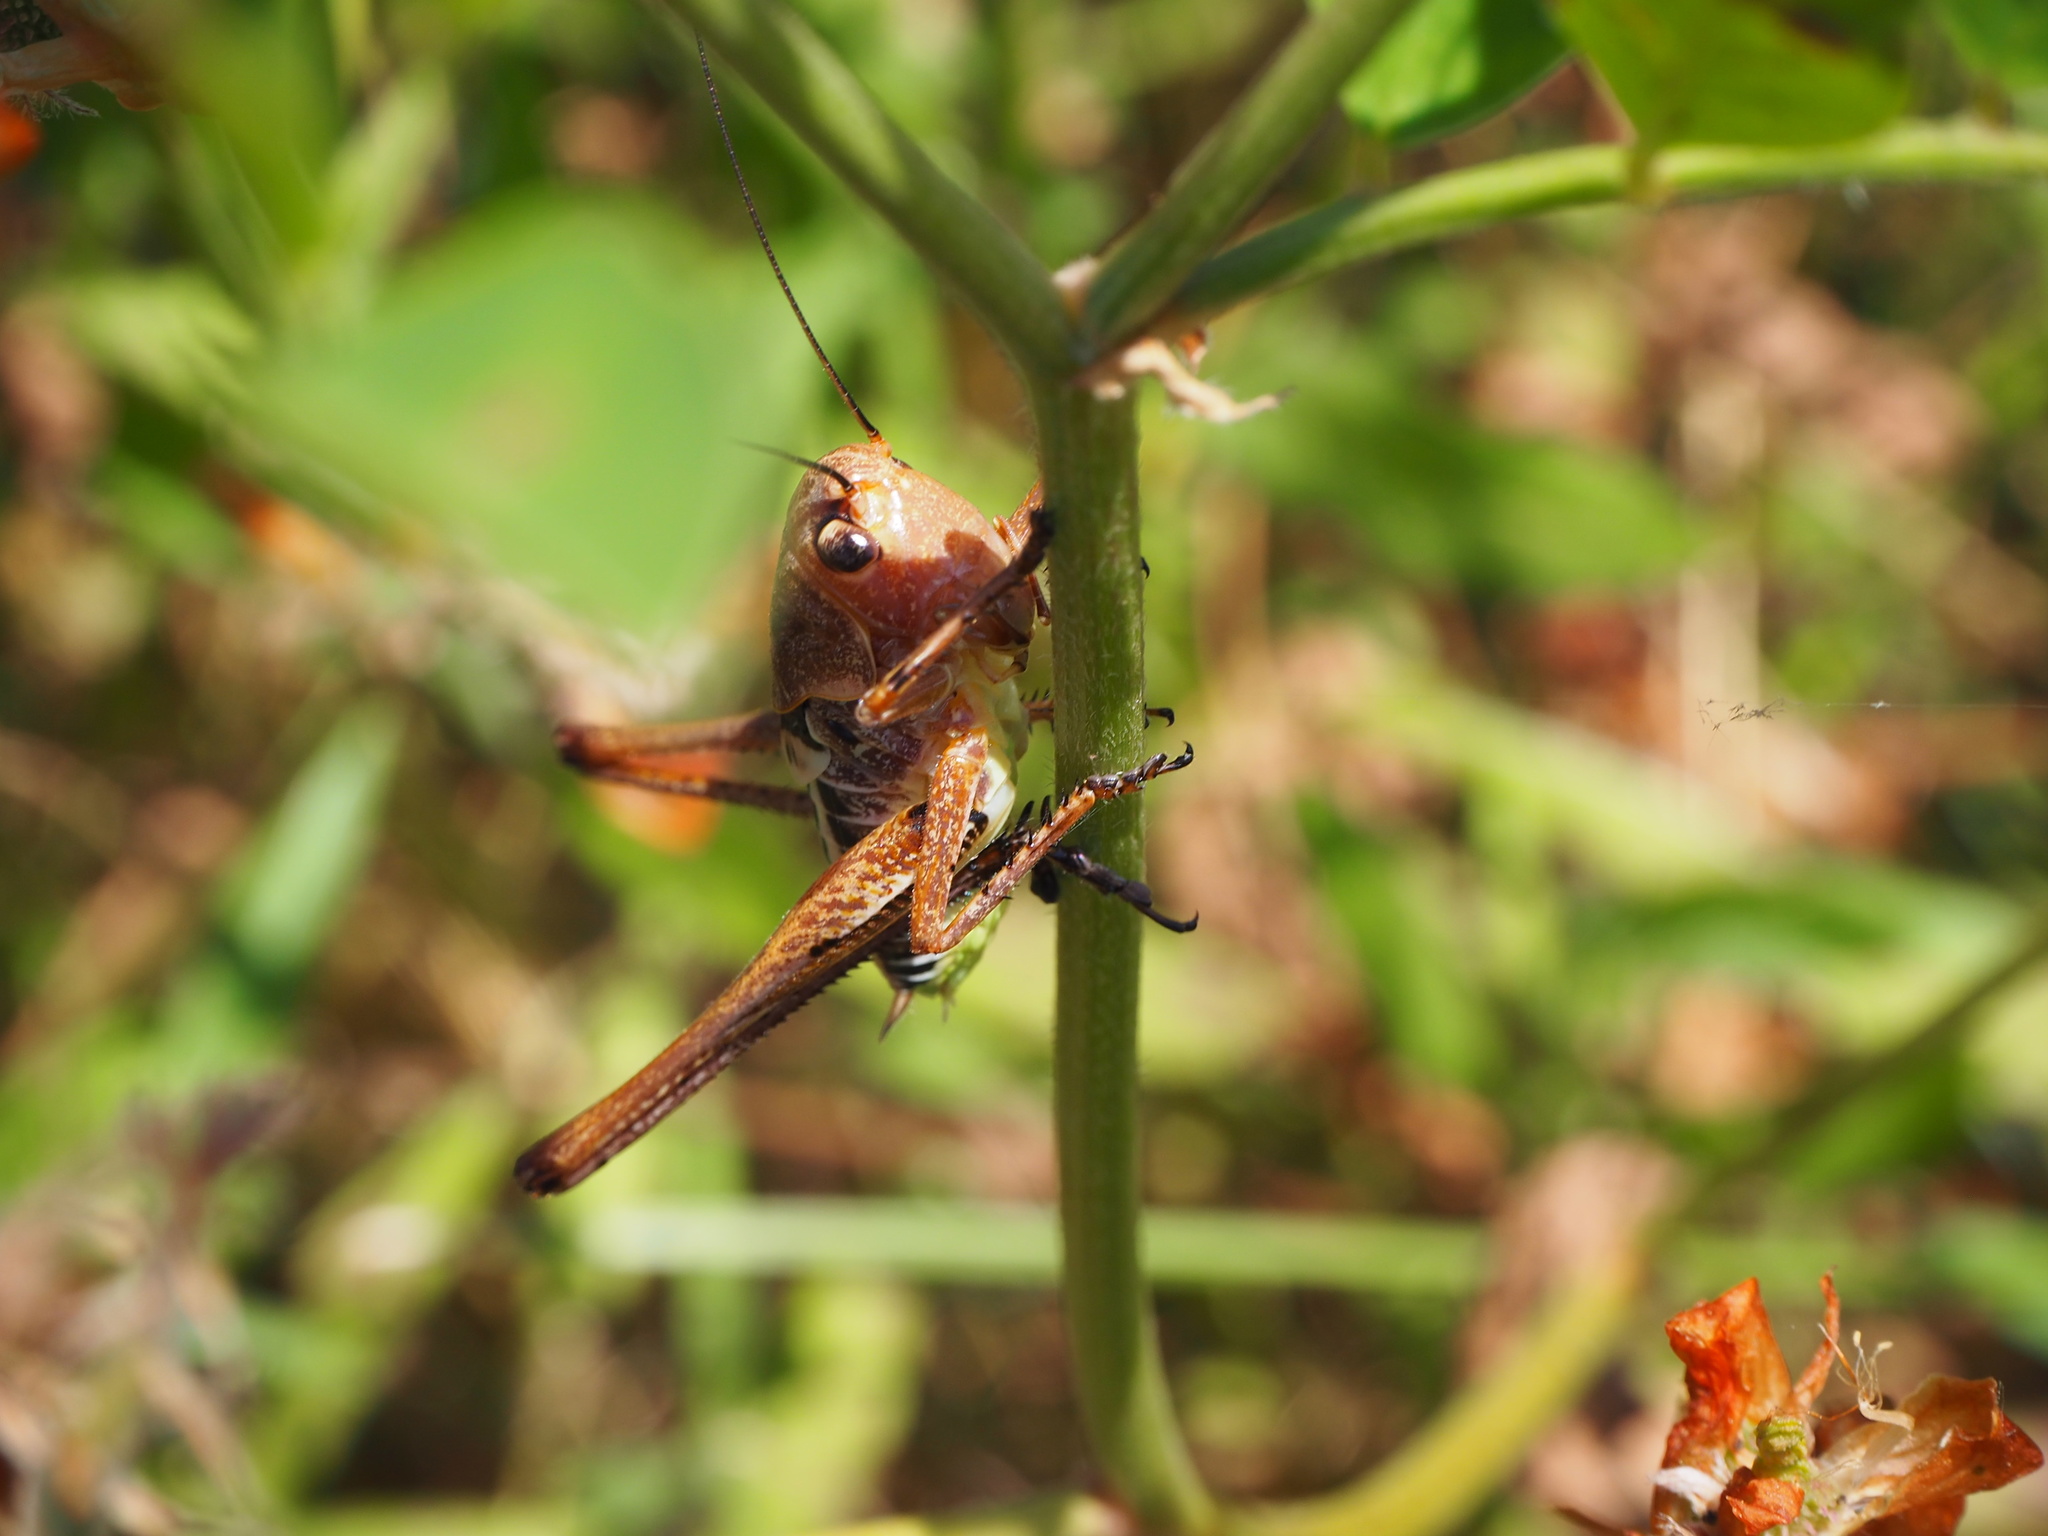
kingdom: Animalia
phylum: Arthropoda
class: Insecta
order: Orthoptera
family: Tettigoniidae
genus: Decticus
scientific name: Decticus albifrons
